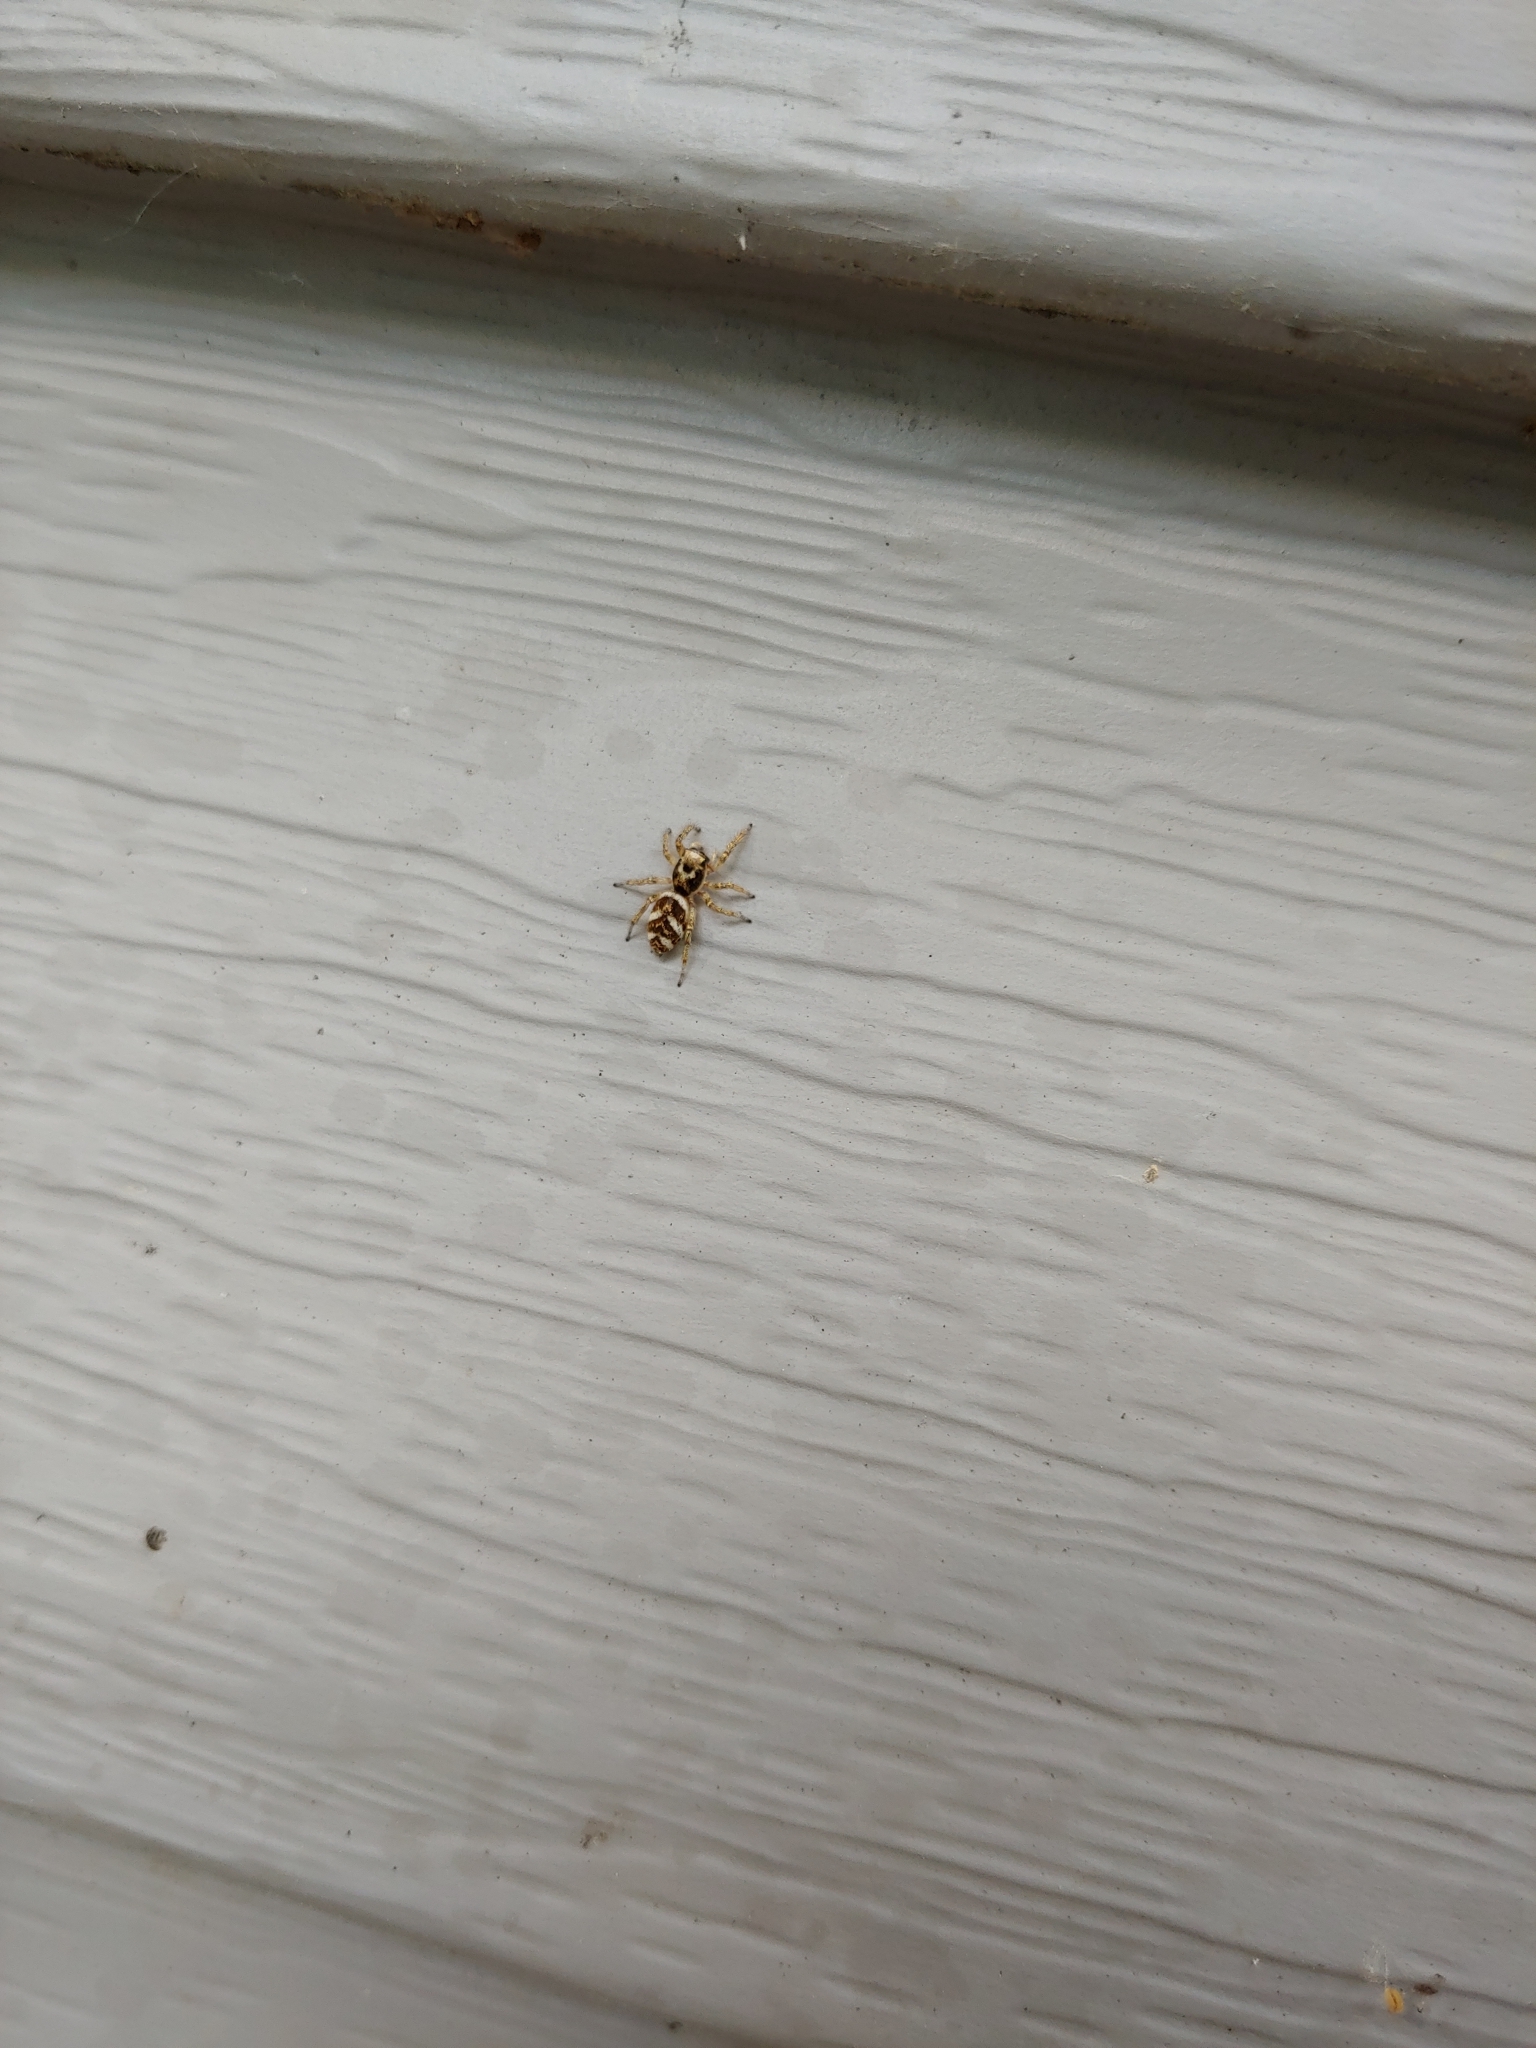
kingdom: Animalia
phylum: Arthropoda
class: Arachnida
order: Araneae
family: Salticidae
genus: Salticus
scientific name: Salticus scenicus
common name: Zebra jumper
